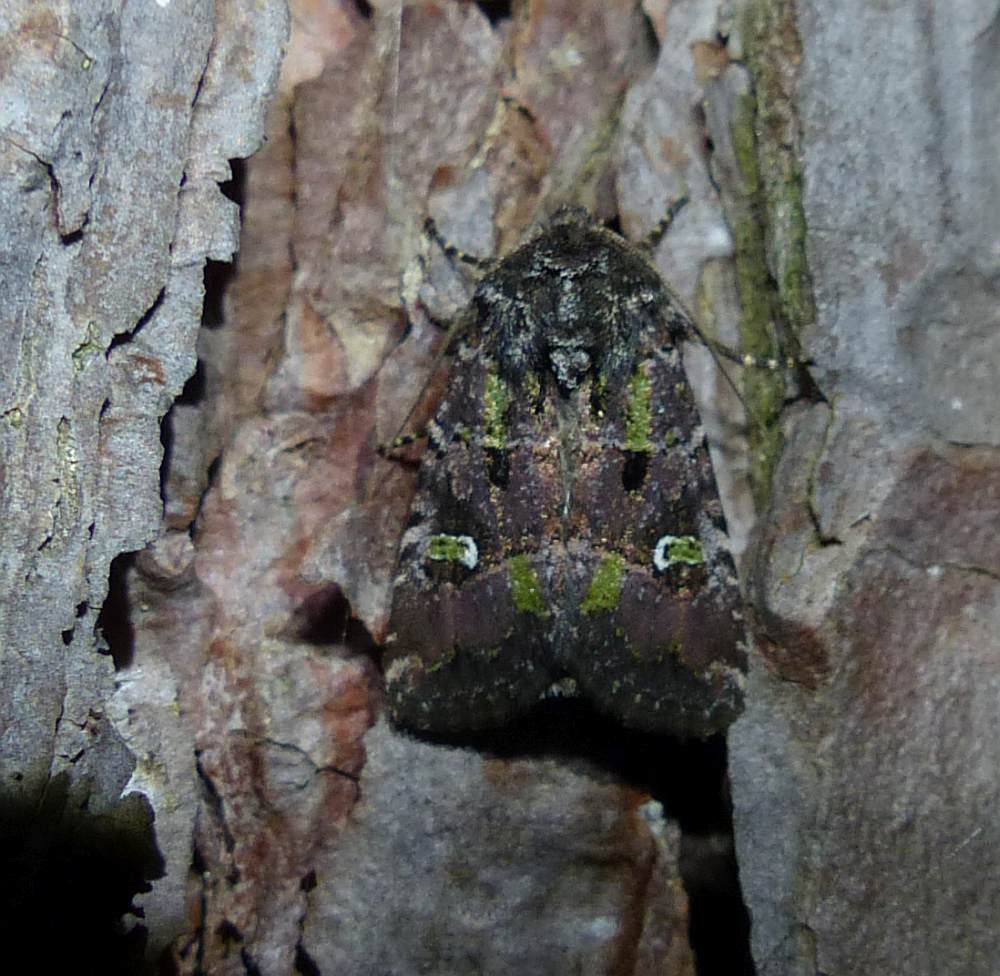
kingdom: Animalia
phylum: Arthropoda
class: Insecta
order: Lepidoptera
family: Noctuidae
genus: Lacinipolia
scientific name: Lacinipolia renigera
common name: Kidney-spotted minor
